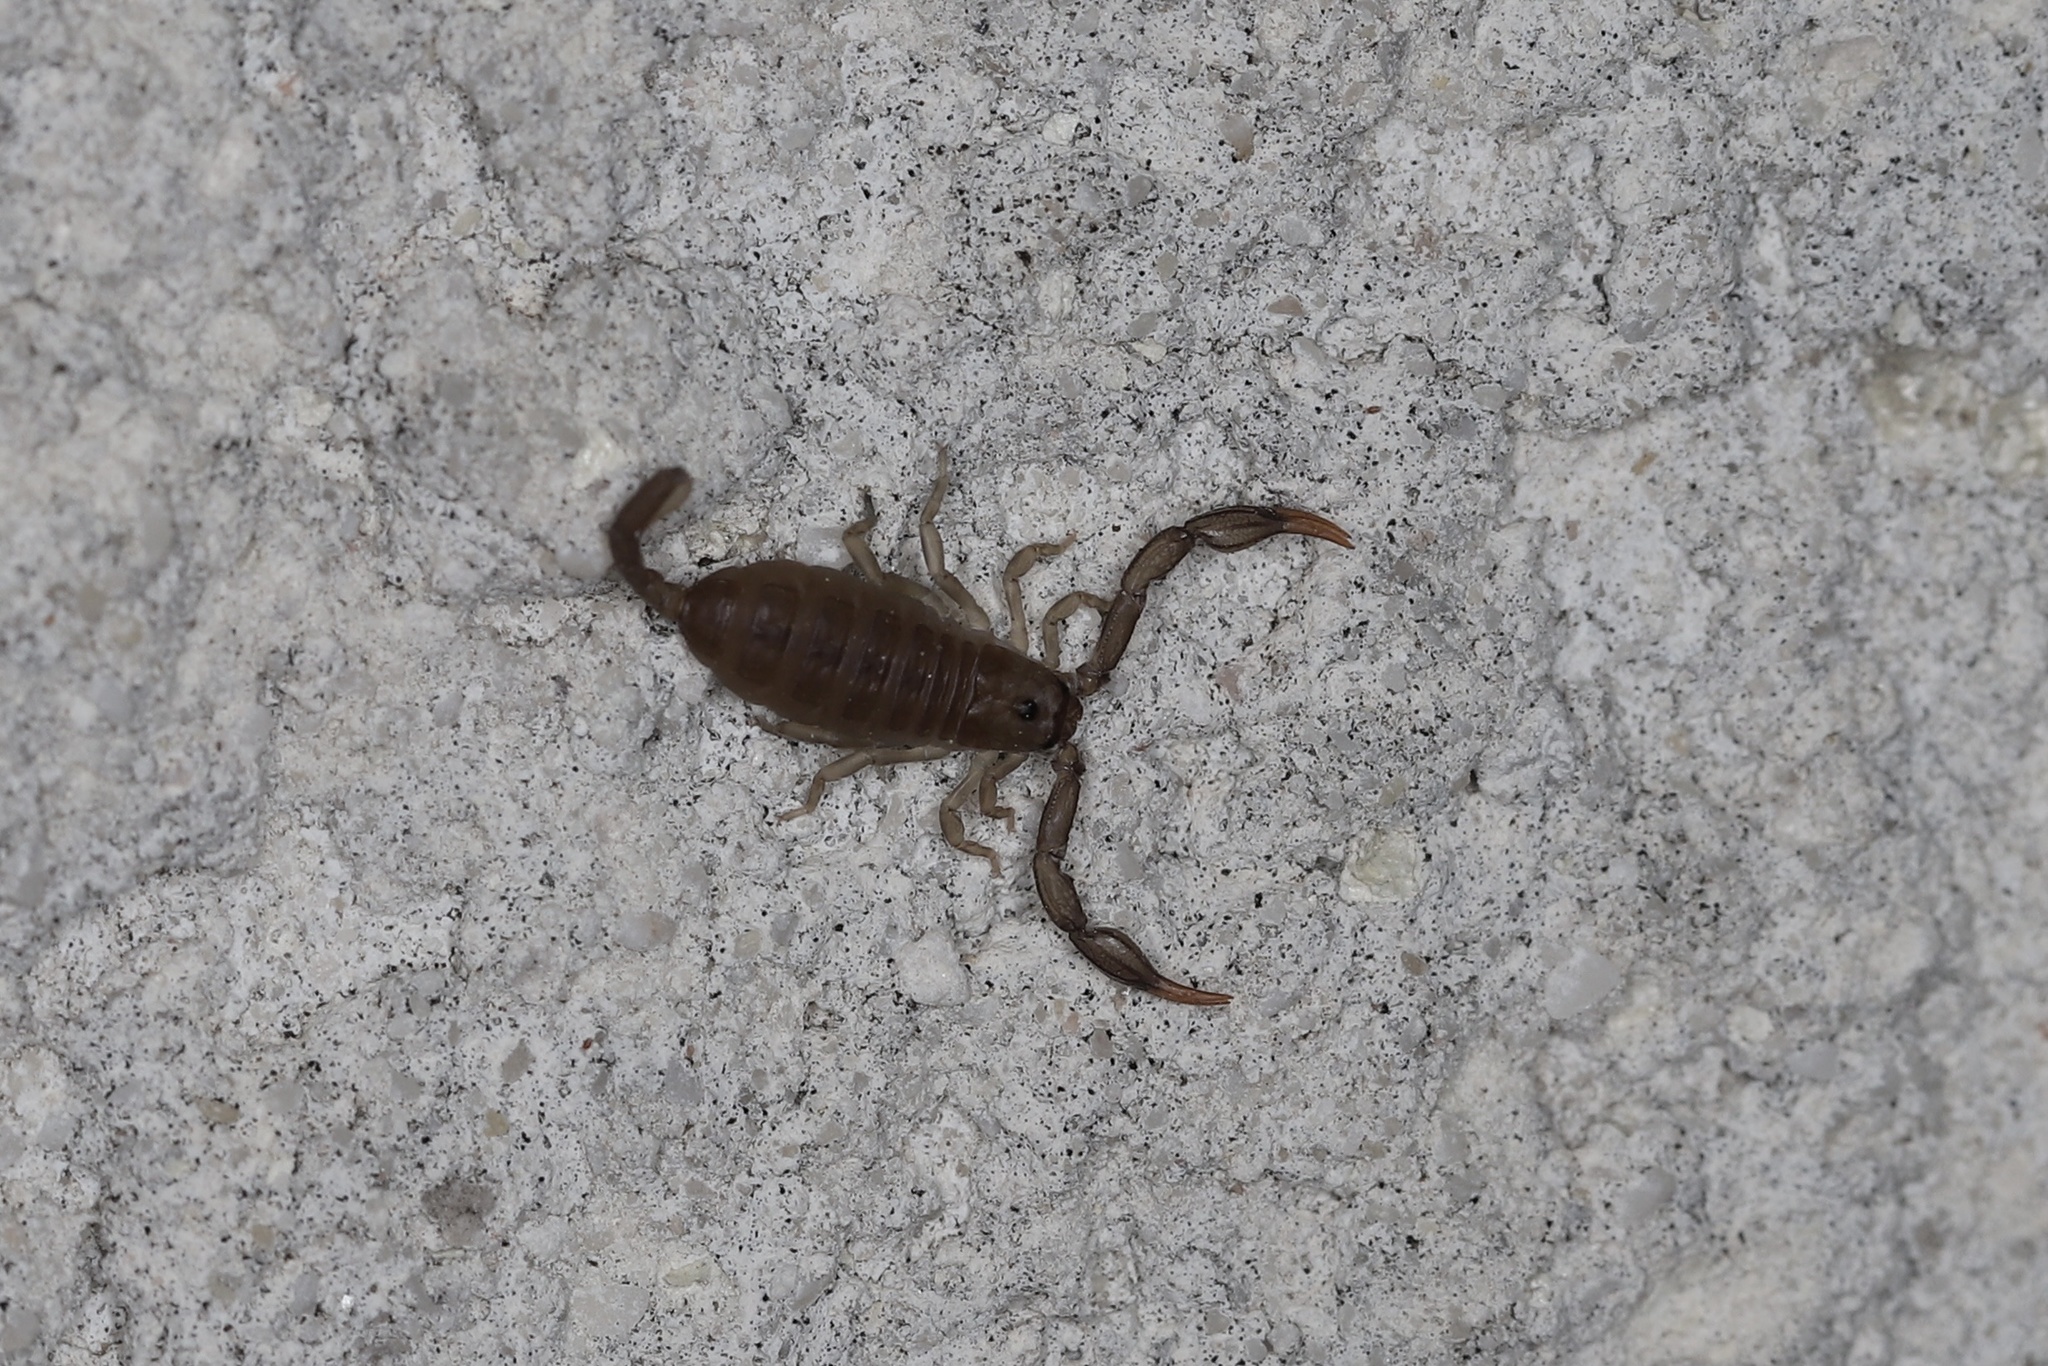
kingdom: Animalia
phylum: Arthropoda
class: Arachnida
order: Scorpiones
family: Euscorpiidae
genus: Euscorpius
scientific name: Euscorpius flavicaudis
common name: European yellow-tailed scorpion
